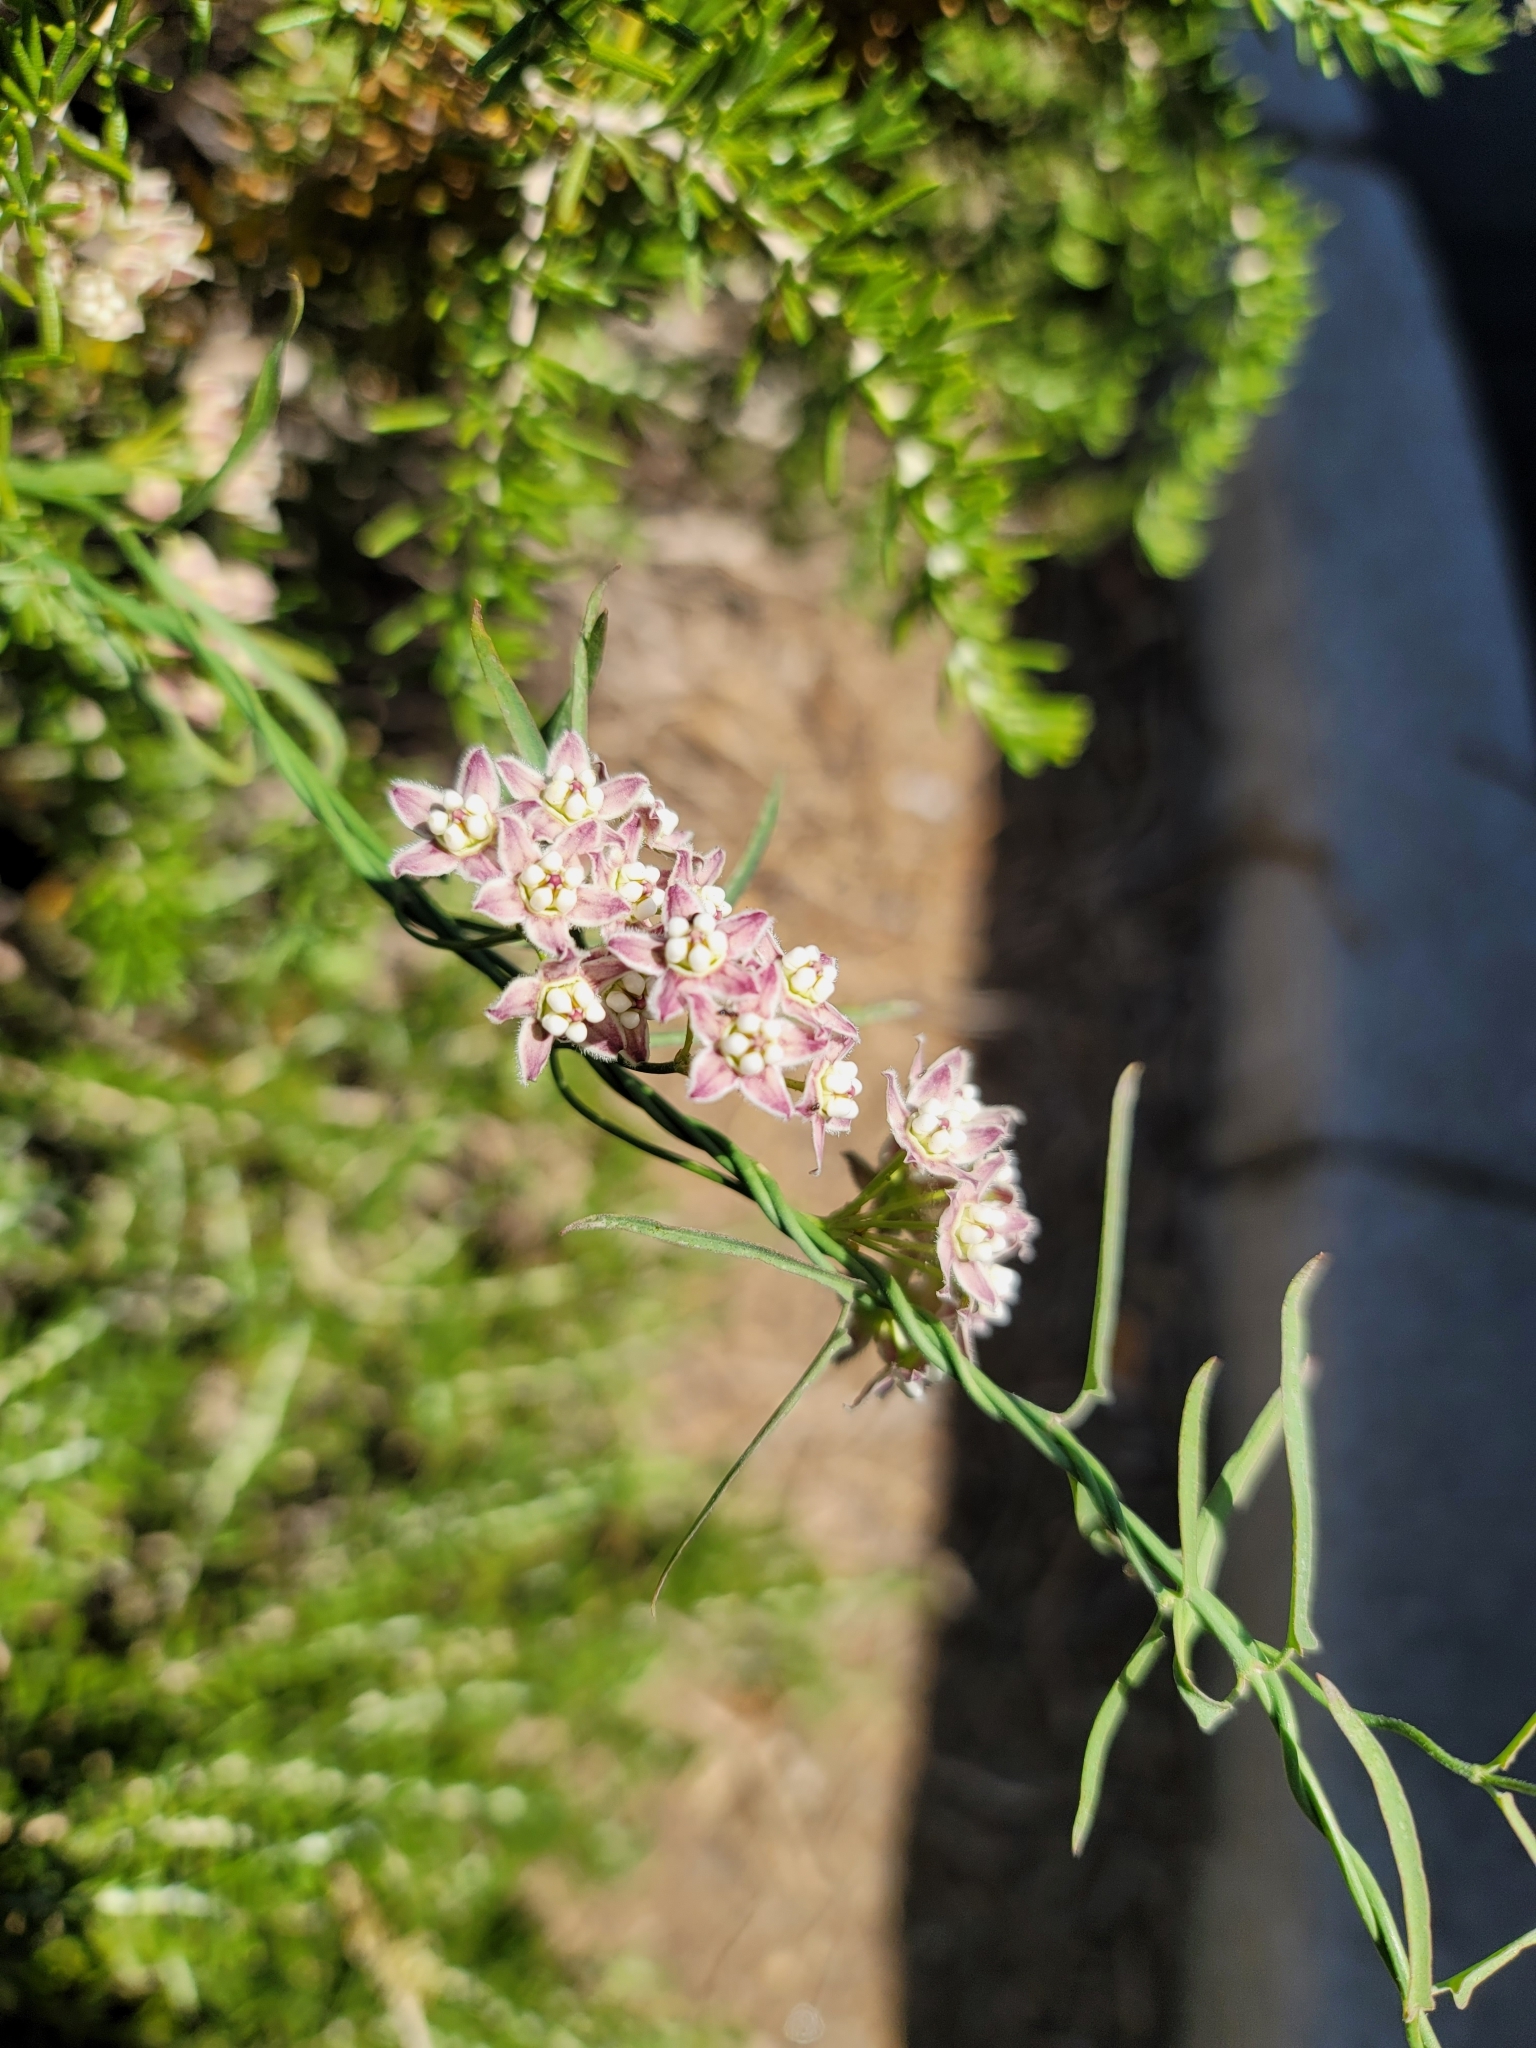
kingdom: Plantae
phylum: Tracheophyta
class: Magnoliopsida
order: Gentianales
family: Apocynaceae
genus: Funastrum
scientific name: Funastrum heterophyllum
